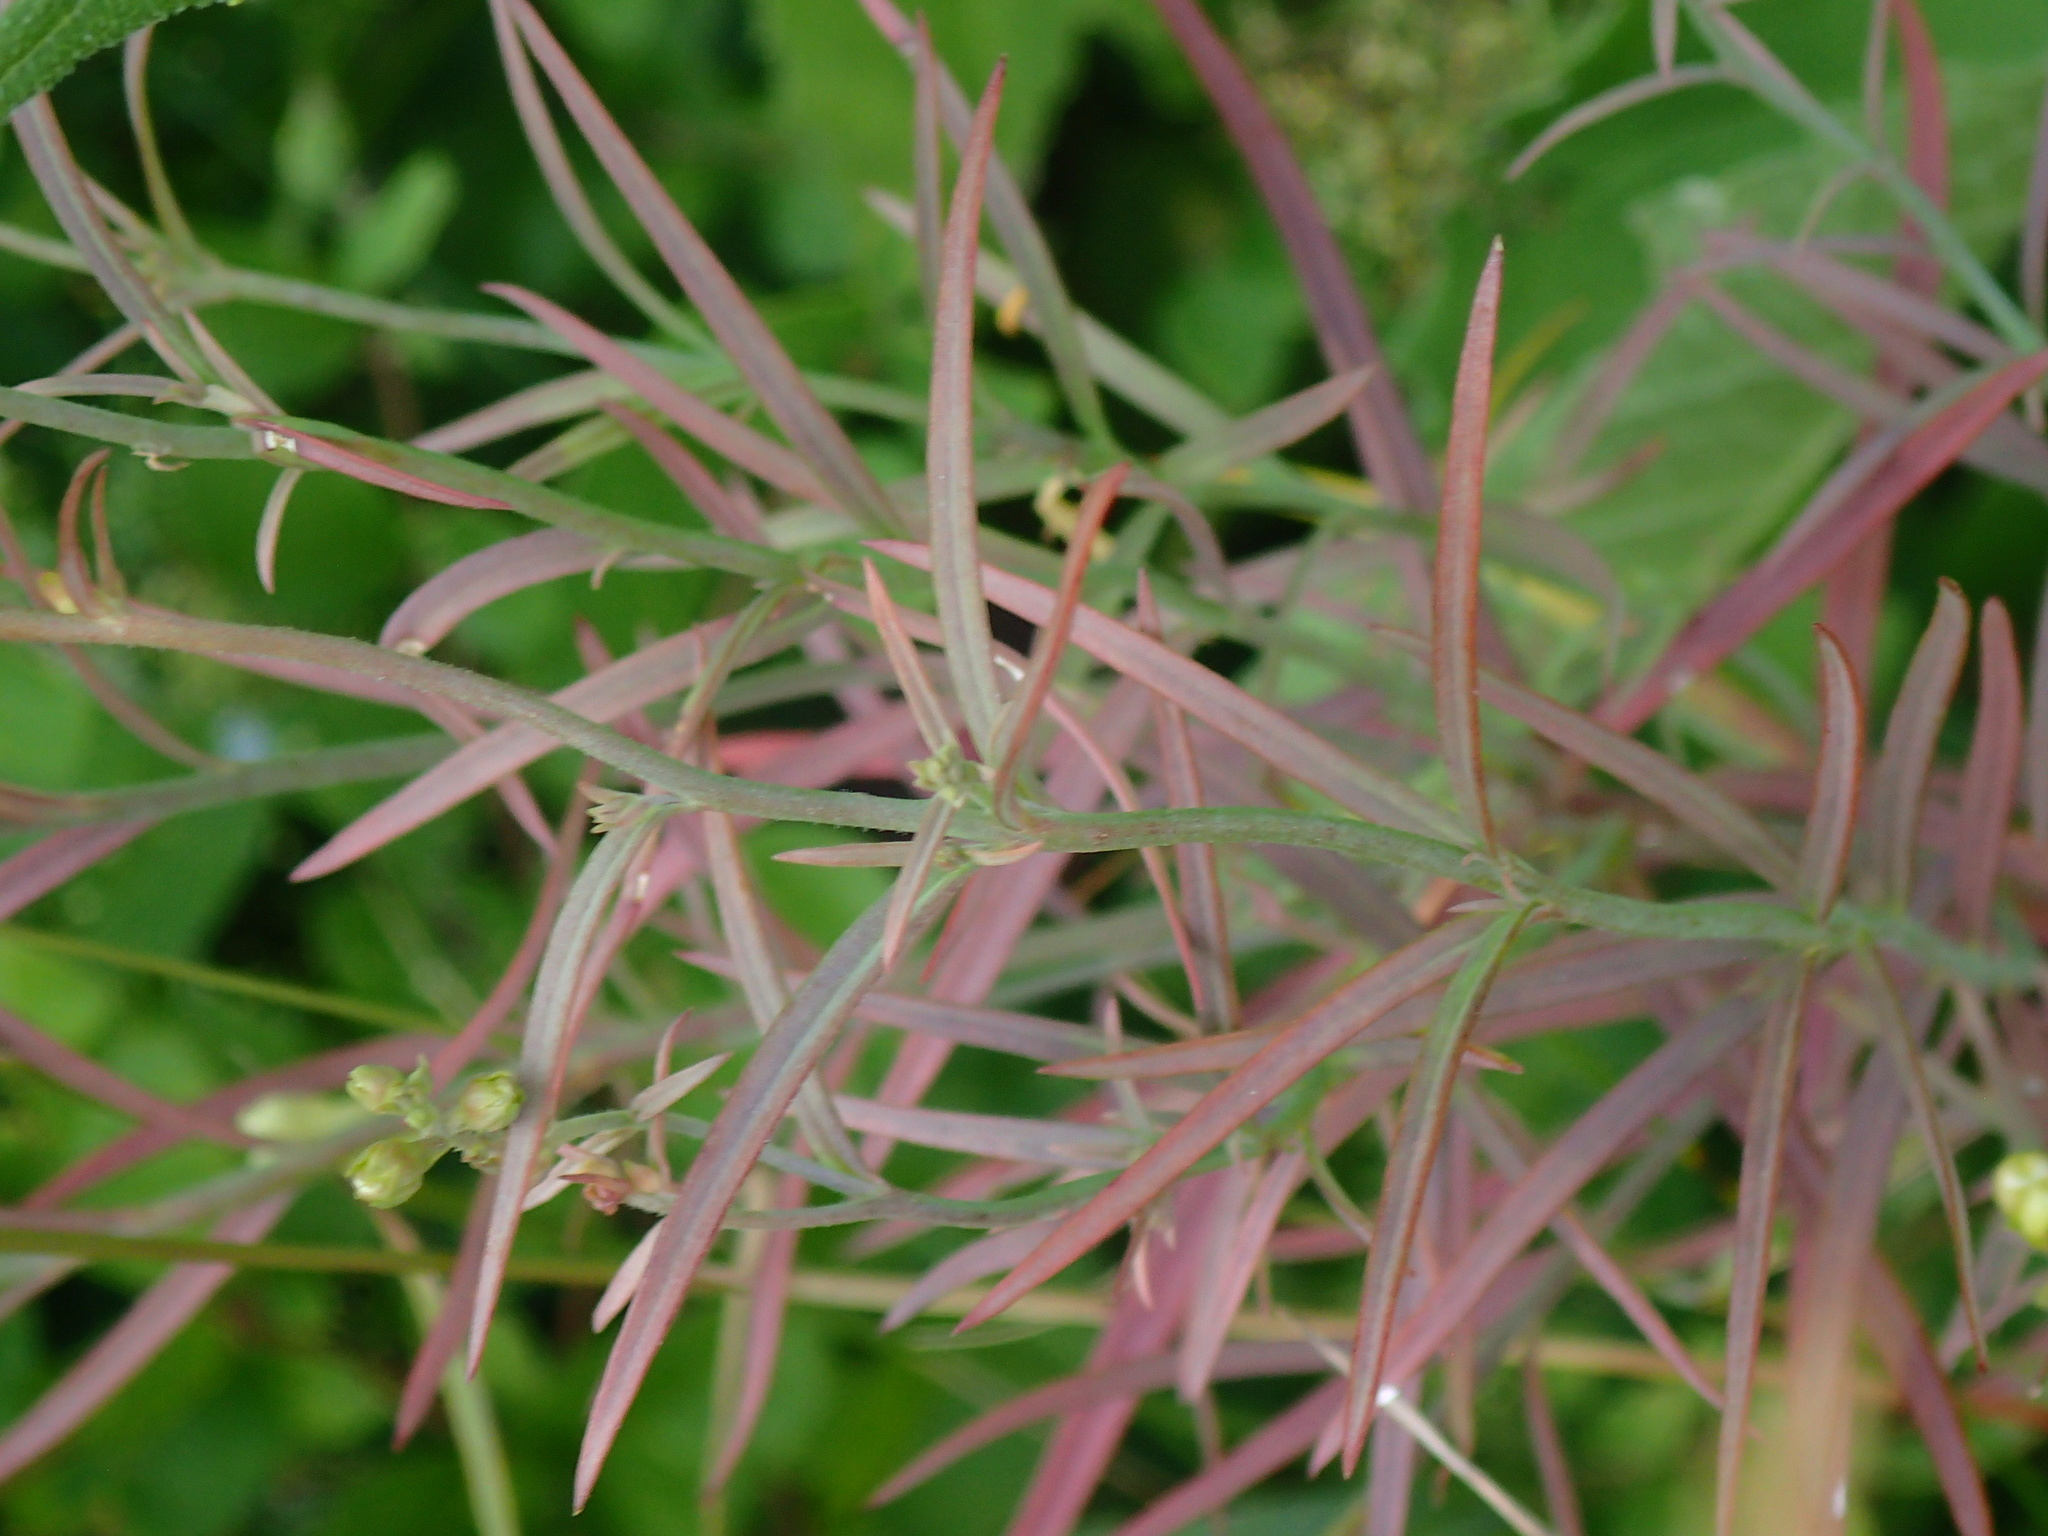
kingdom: Plantae
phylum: Tracheophyta
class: Magnoliopsida
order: Lamiales
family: Plantaginaceae
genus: Linaria
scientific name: Linaria vulgaris
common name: Butter and eggs
